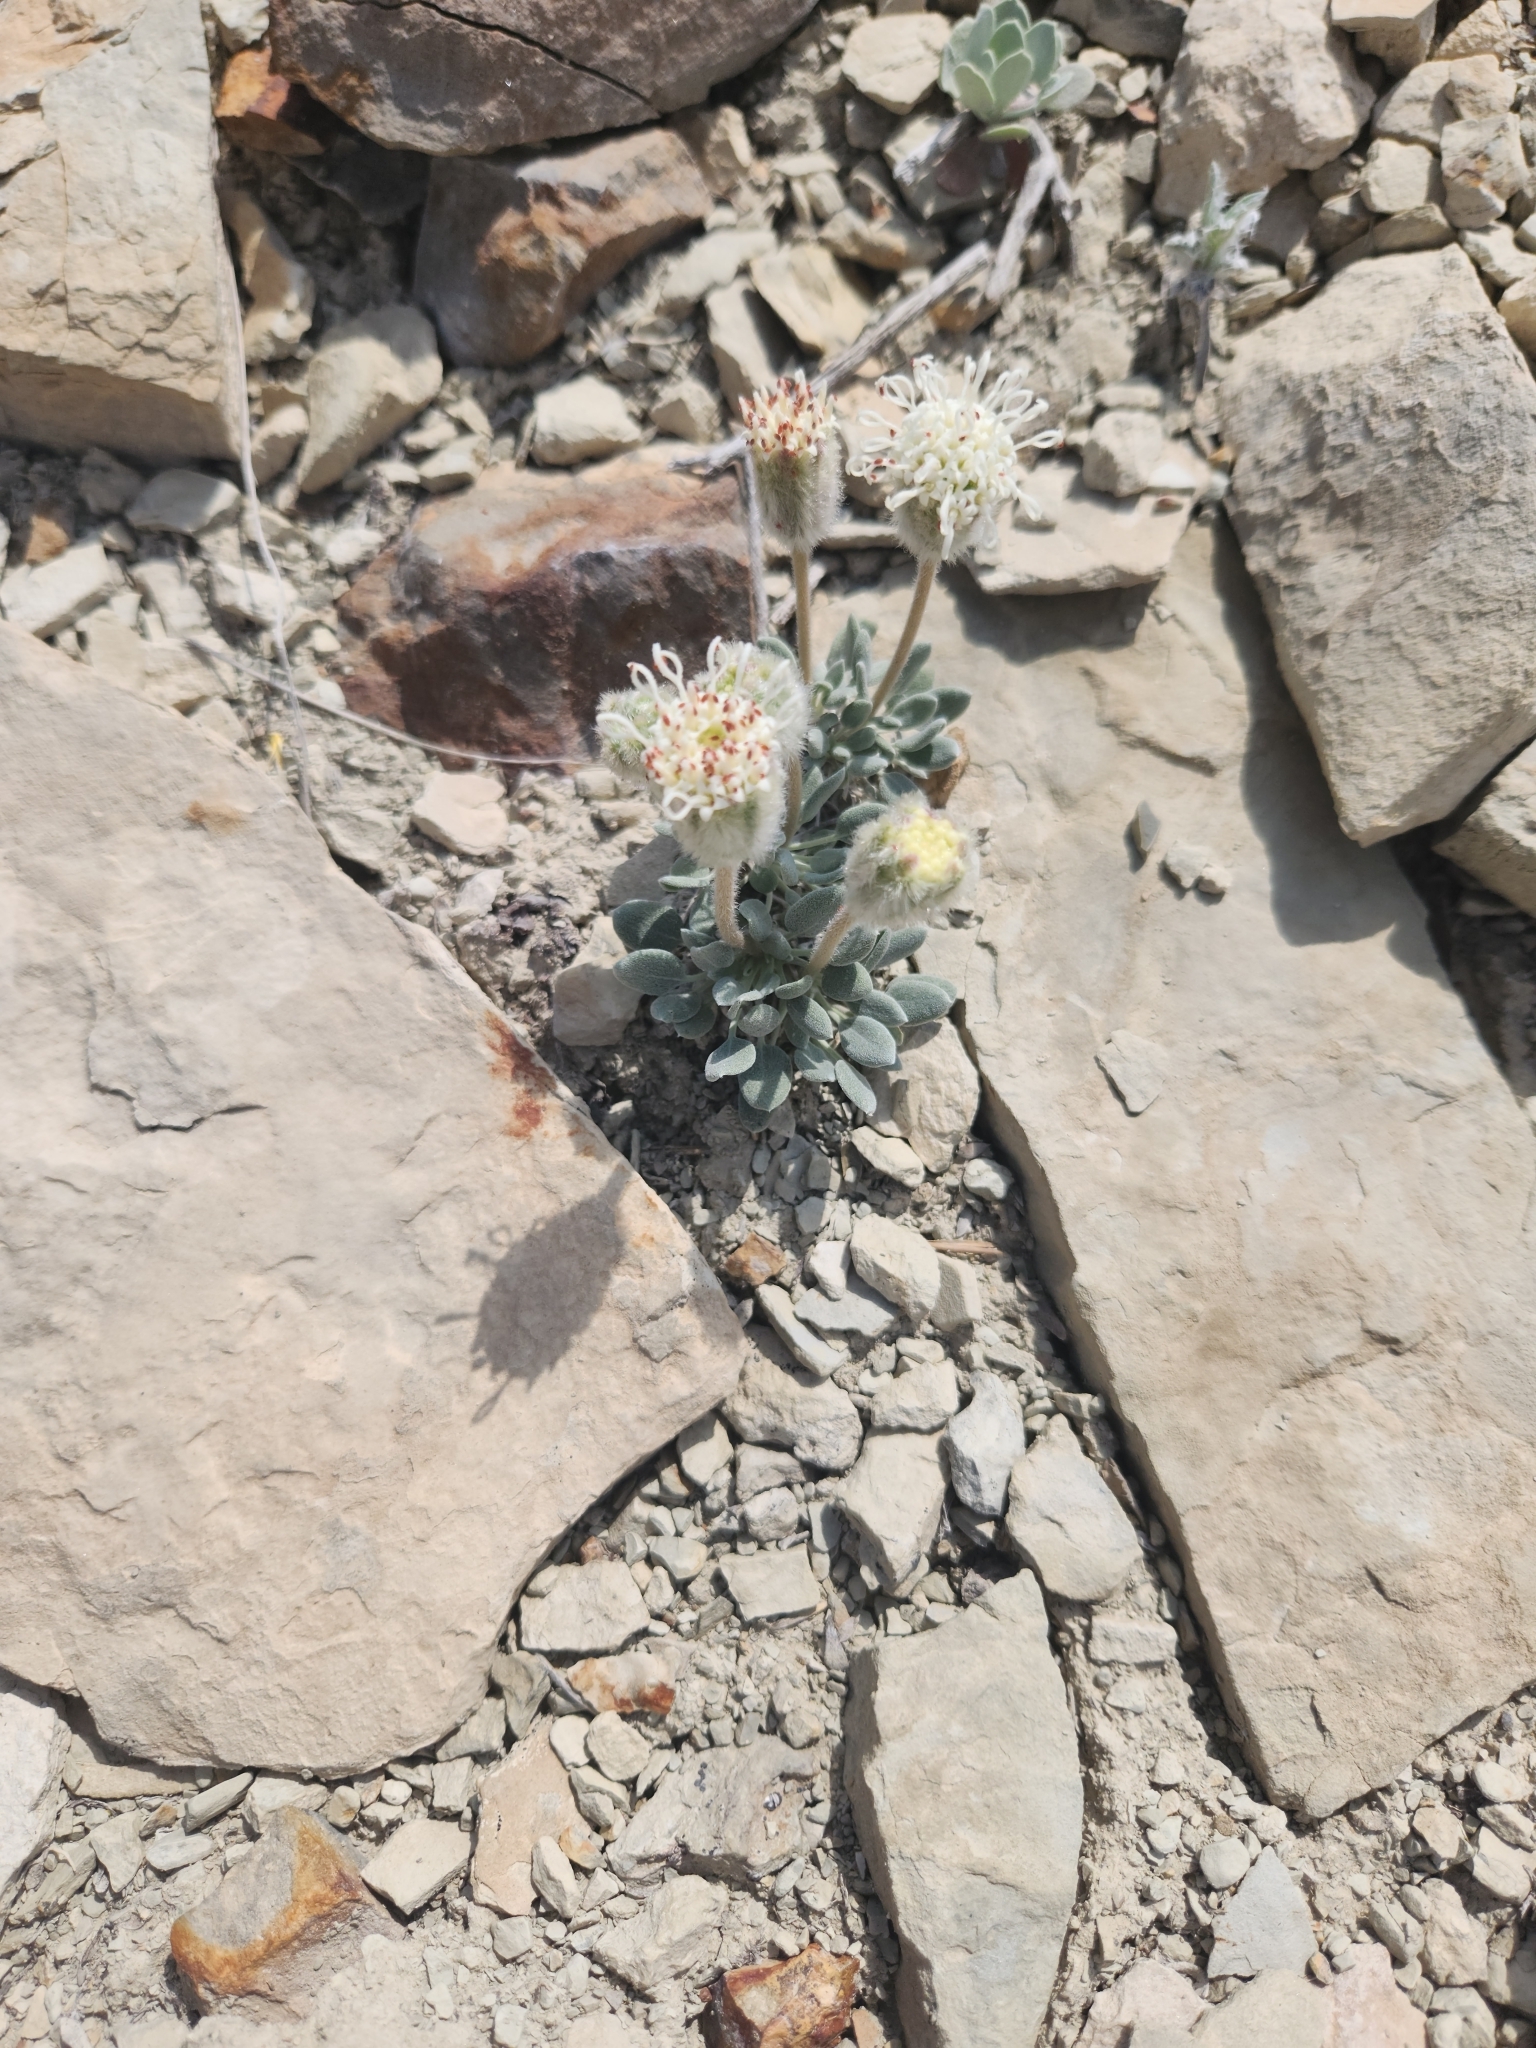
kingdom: Plantae
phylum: Tracheophyta
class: Magnoliopsida
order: Asterales
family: Asteraceae
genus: Chamaechaenactis
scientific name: Chamaechaenactis scaposa
